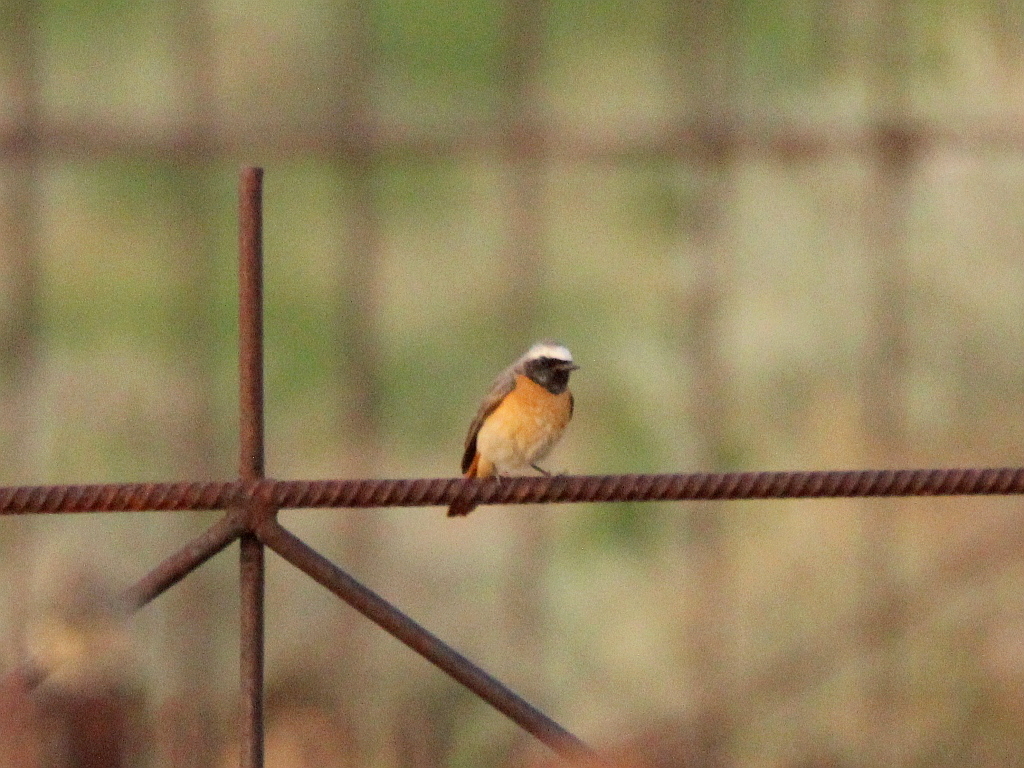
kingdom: Animalia
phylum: Chordata
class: Aves
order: Passeriformes
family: Muscicapidae
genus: Phoenicurus
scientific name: Phoenicurus phoenicurus
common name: Common redstart
